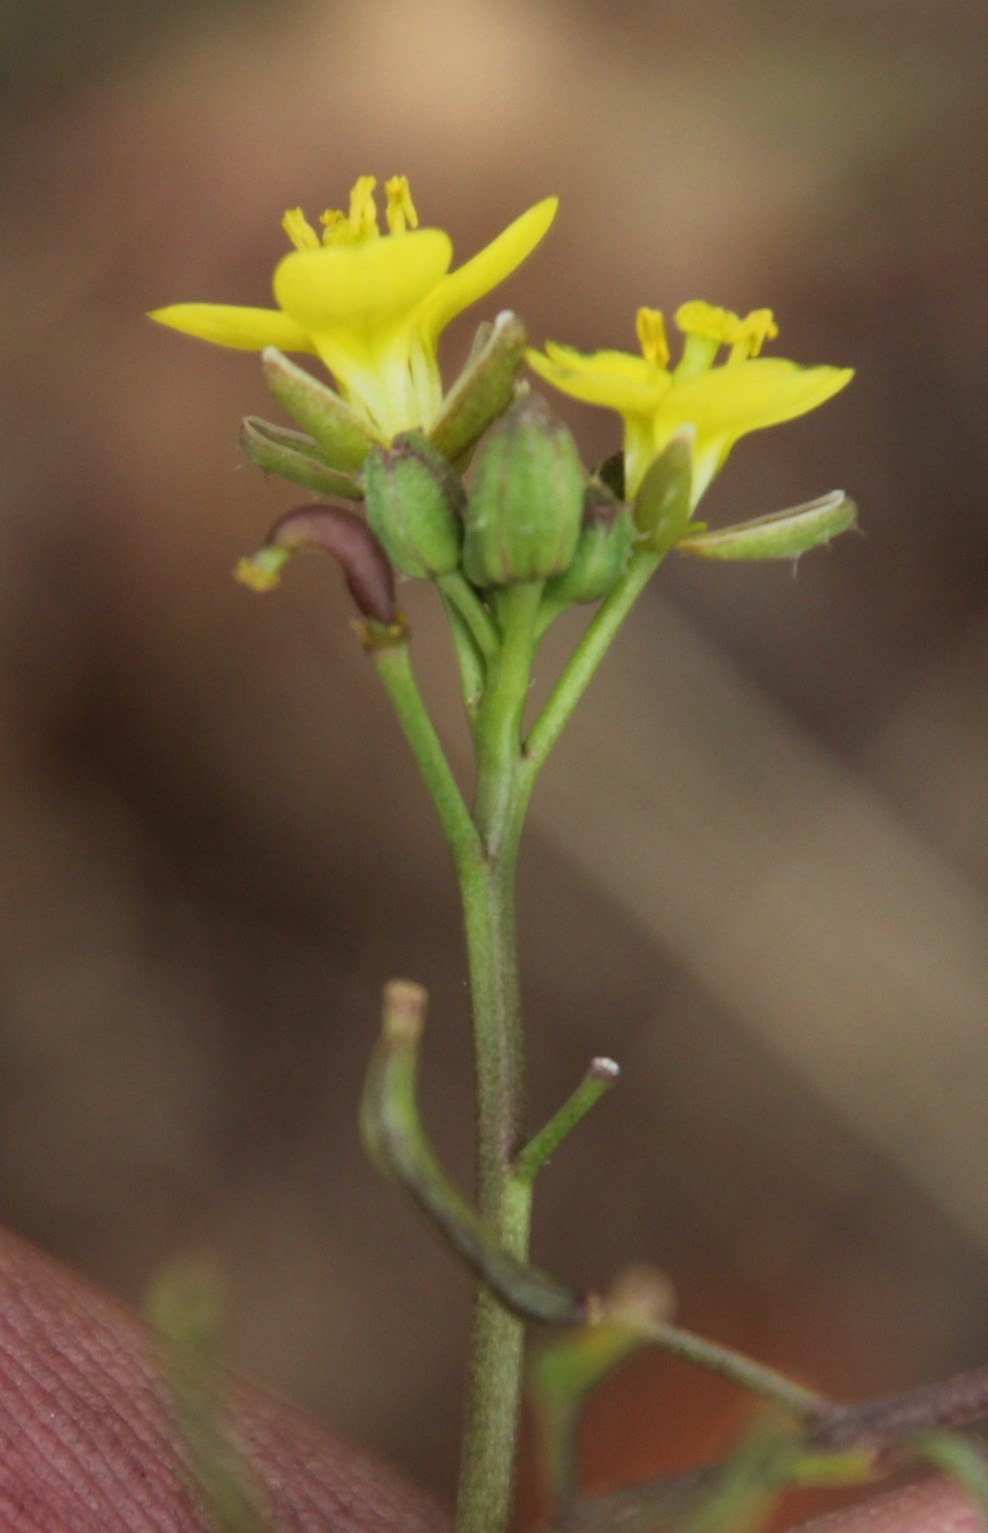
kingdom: Plantae
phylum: Tracheophyta
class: Magnoliopsida
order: Brassicales
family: Brassicaceae
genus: Diplotaxis
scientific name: Diplotaxis muralis
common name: Annual wall-rocket
